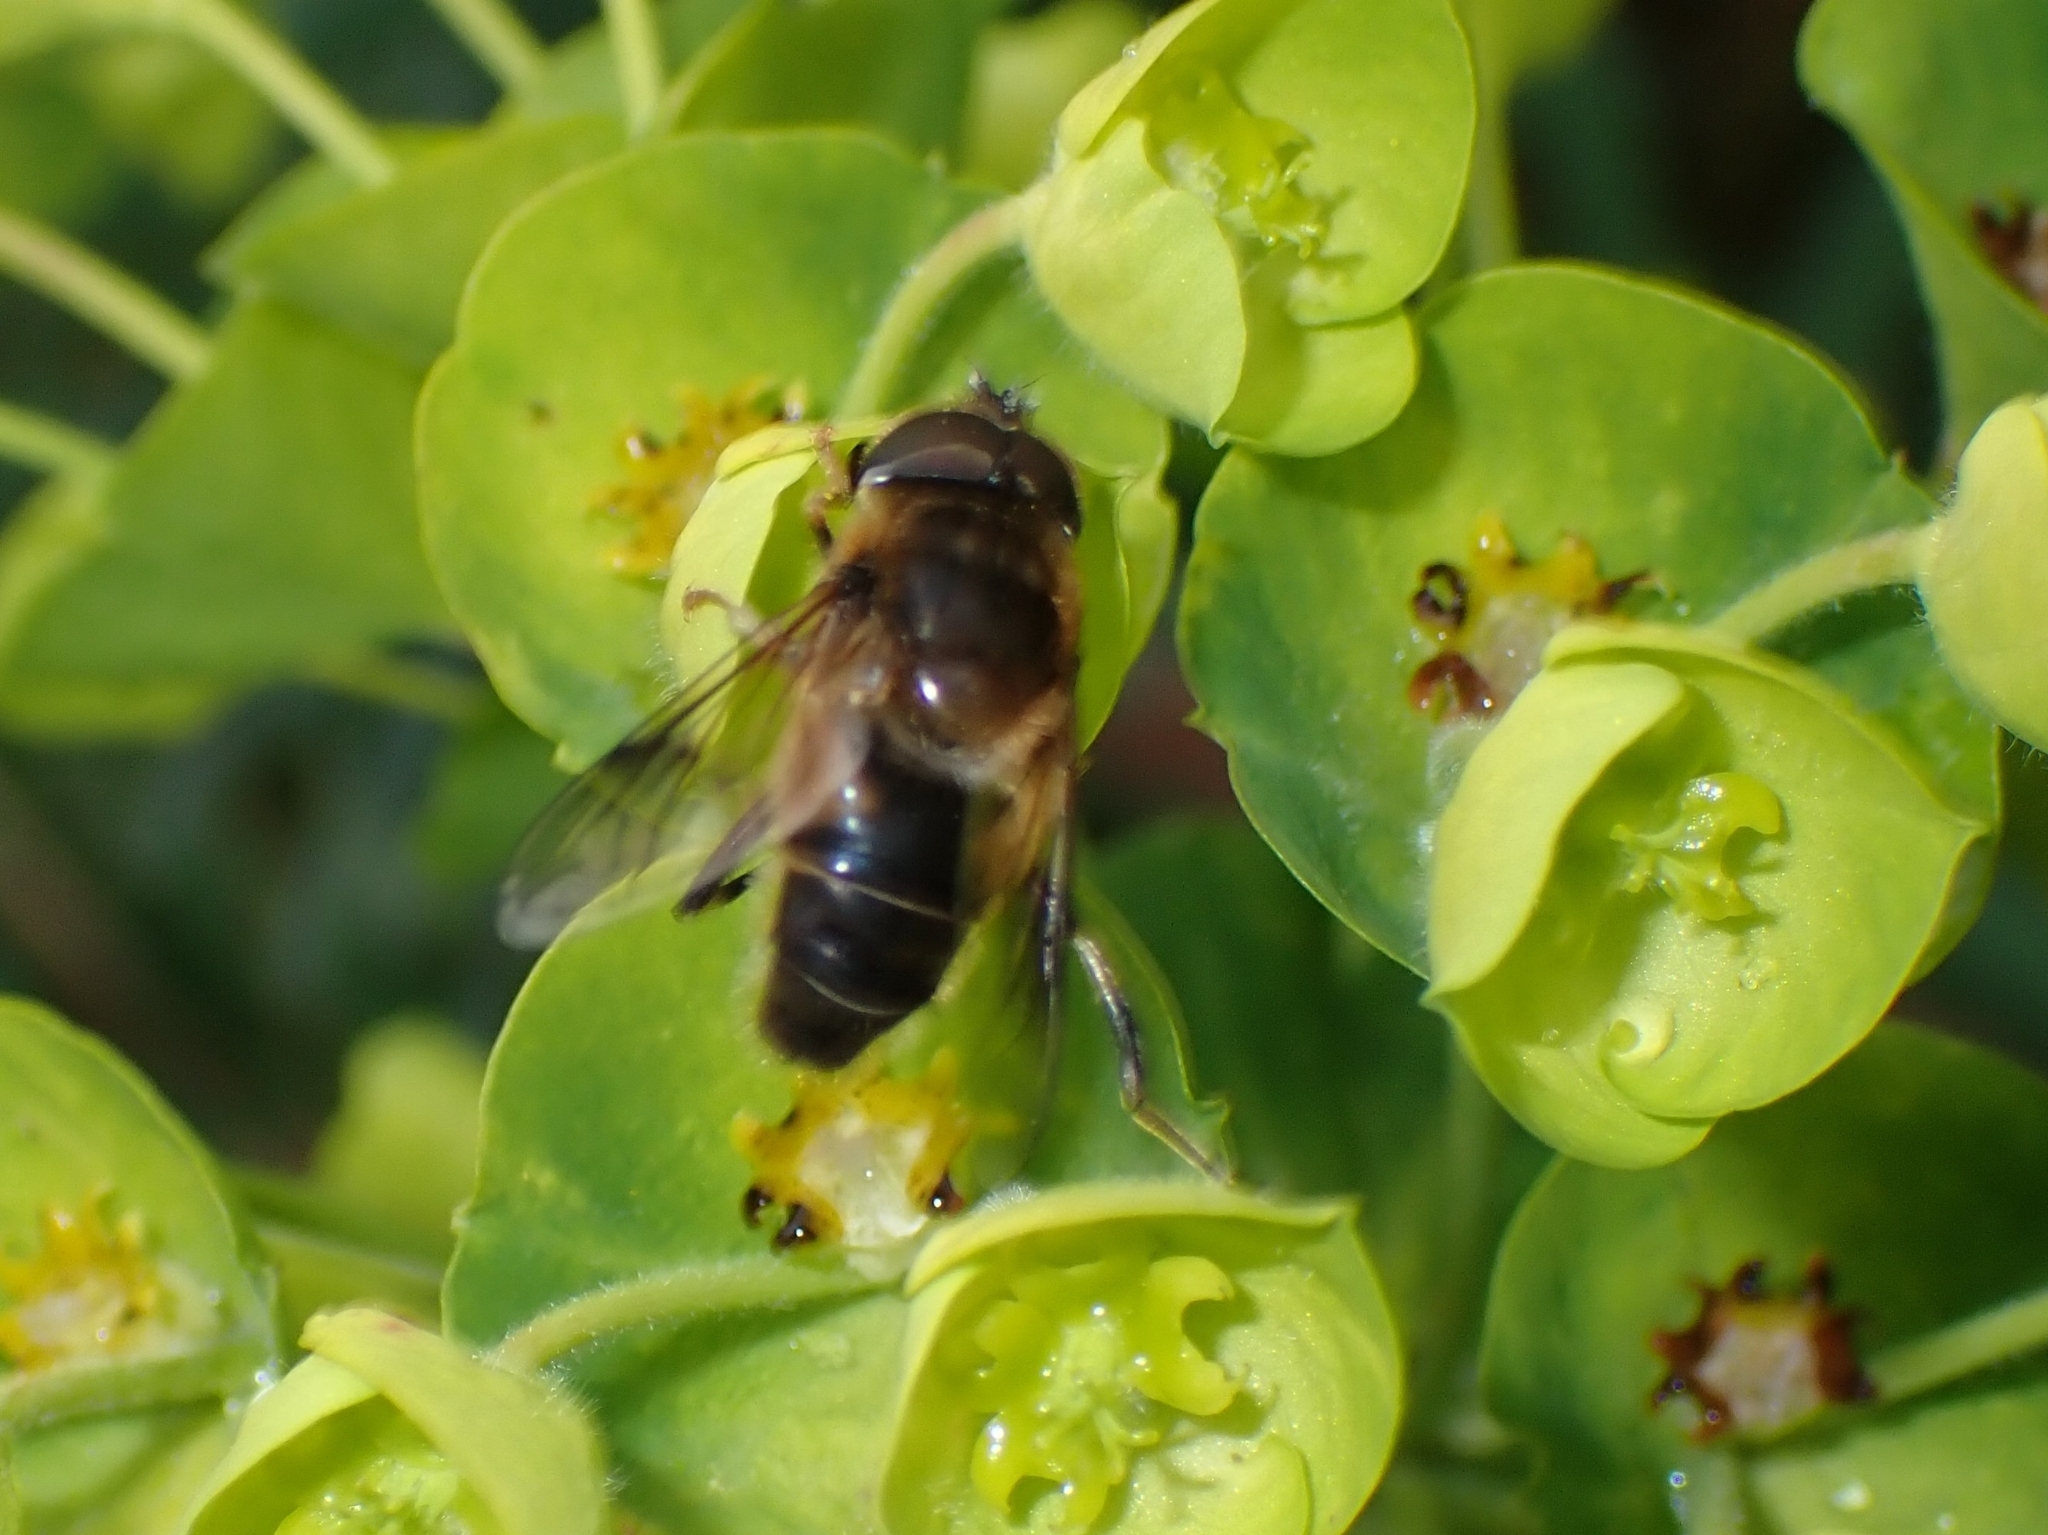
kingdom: Animalia
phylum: Arthropoda
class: Insecta
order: Diptera
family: Syrphidae
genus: Eristalis
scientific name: Eristalis pertinax
